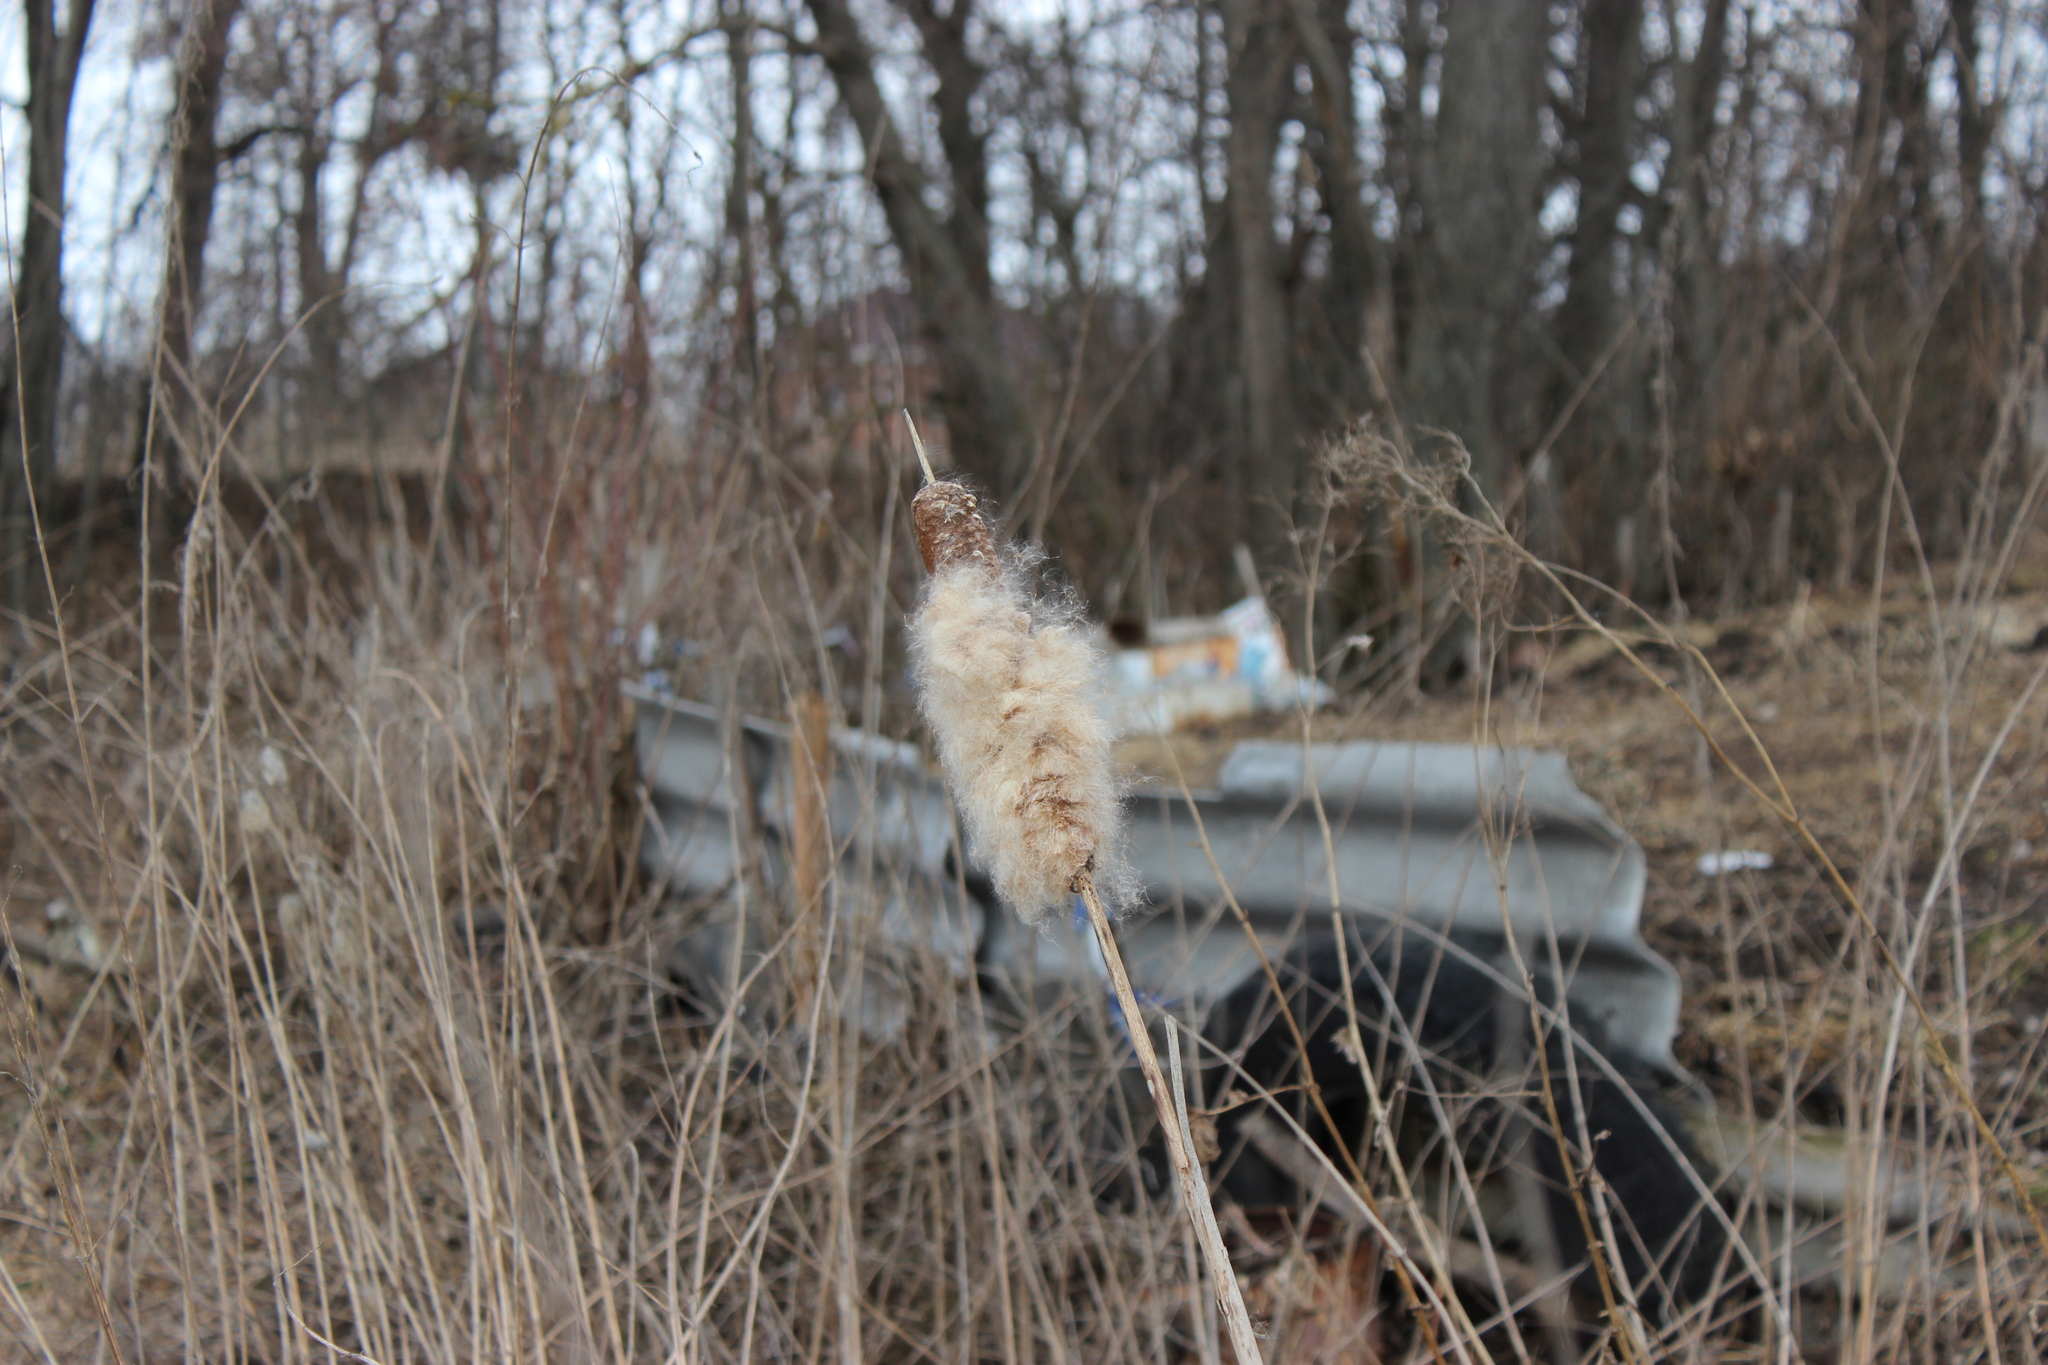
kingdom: Plantae
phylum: Tracheophyta
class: Liliopsida
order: Poales
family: Typhaceae
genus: Typha
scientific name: Typha latifolia
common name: Broadleaf cattail
